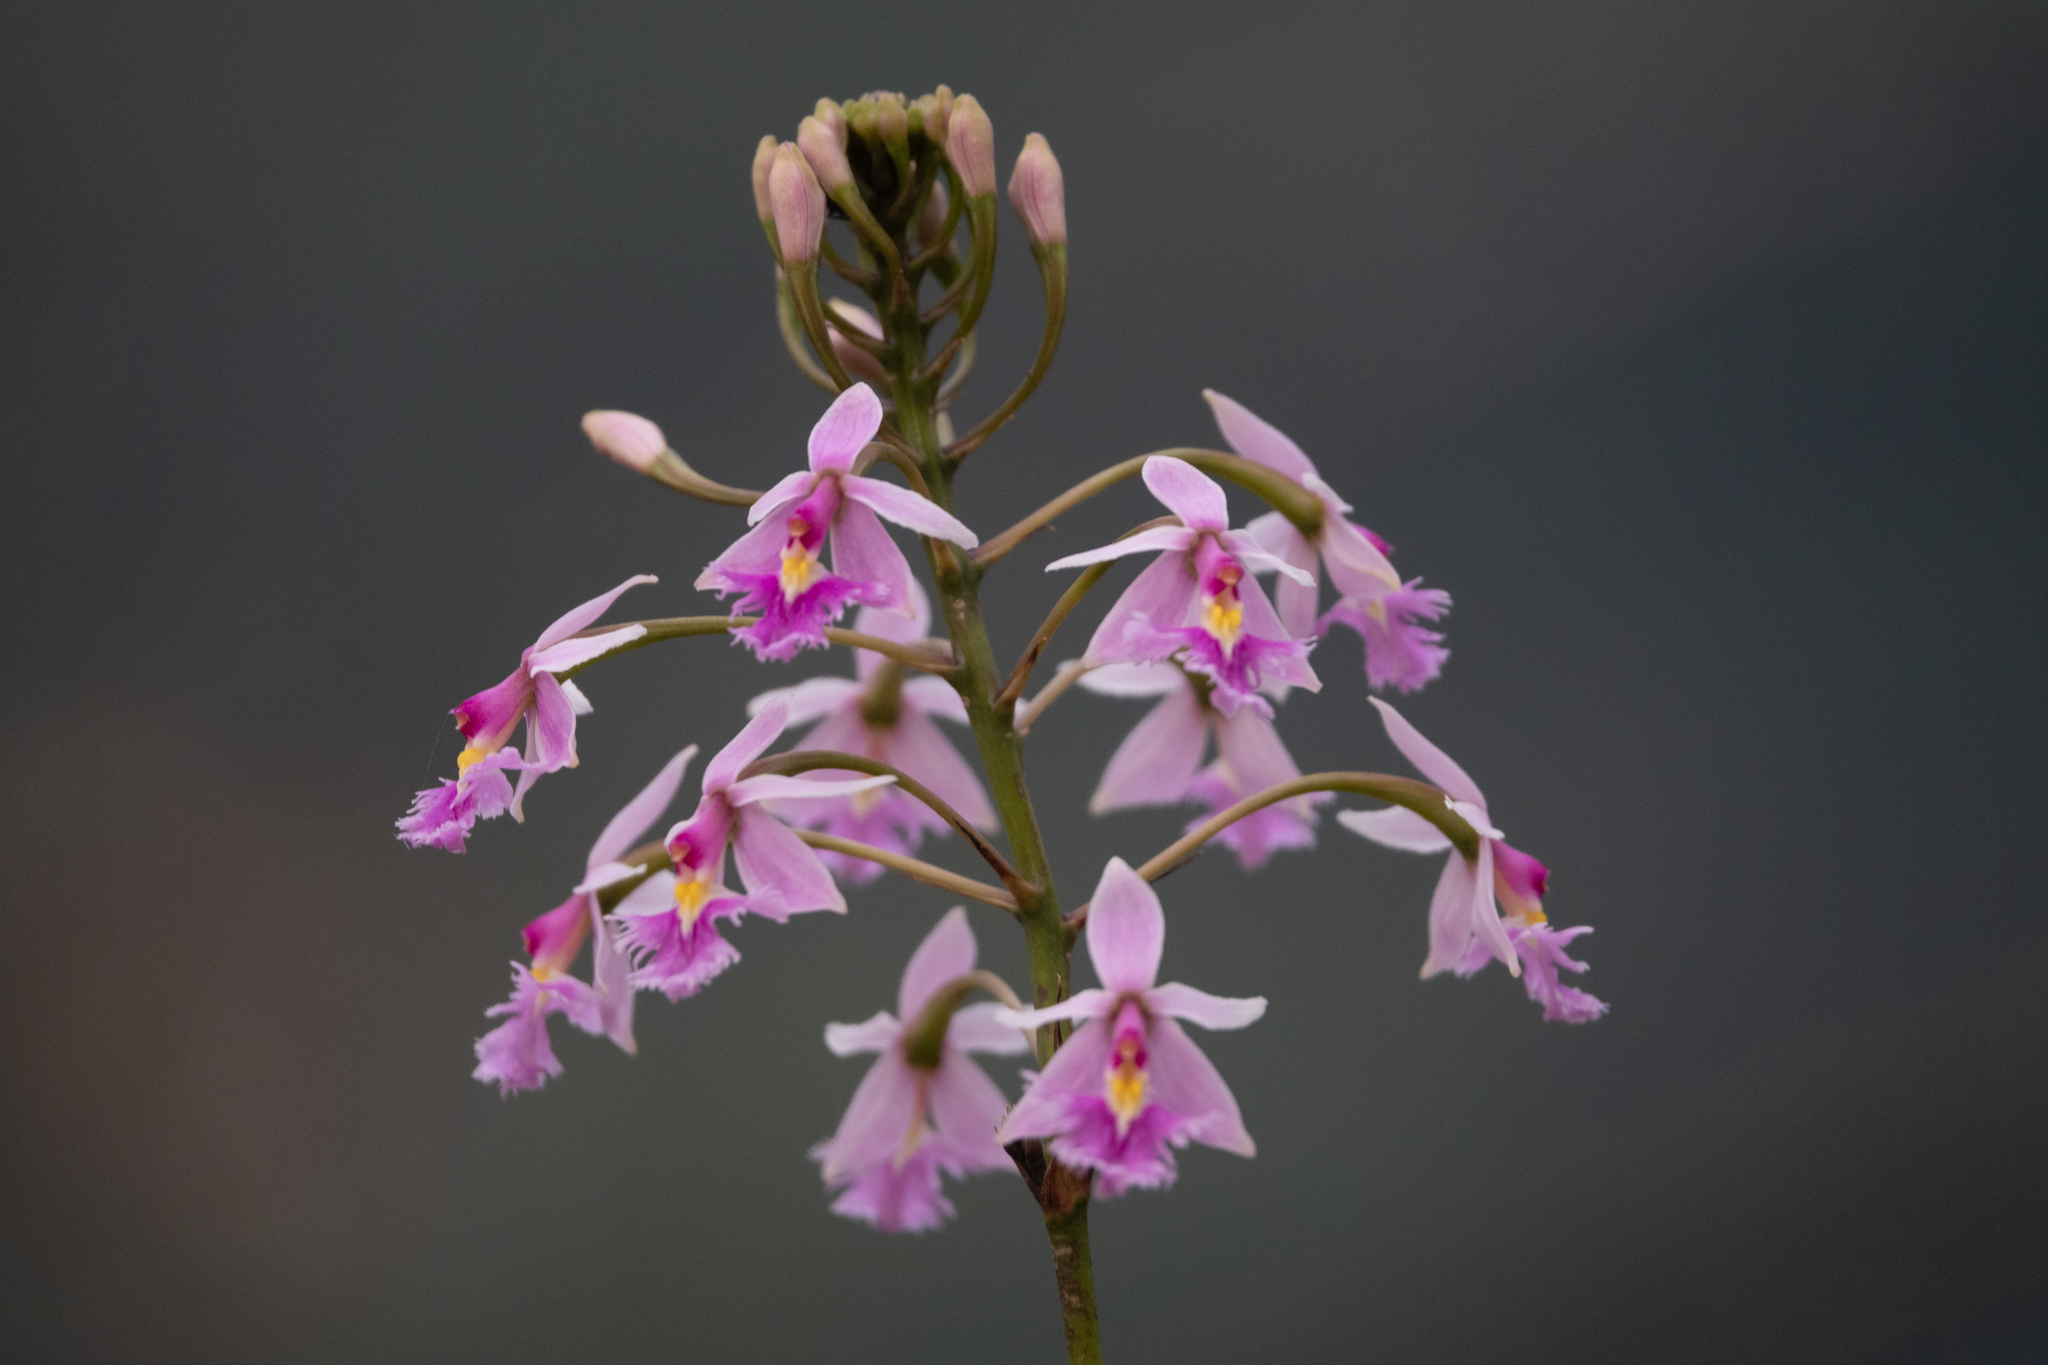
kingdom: Plantae
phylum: Tracheophyta
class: Liliopsida
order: Asparagales
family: Orchidaceae
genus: Epidendrum
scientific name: Epidendrum calanthum
